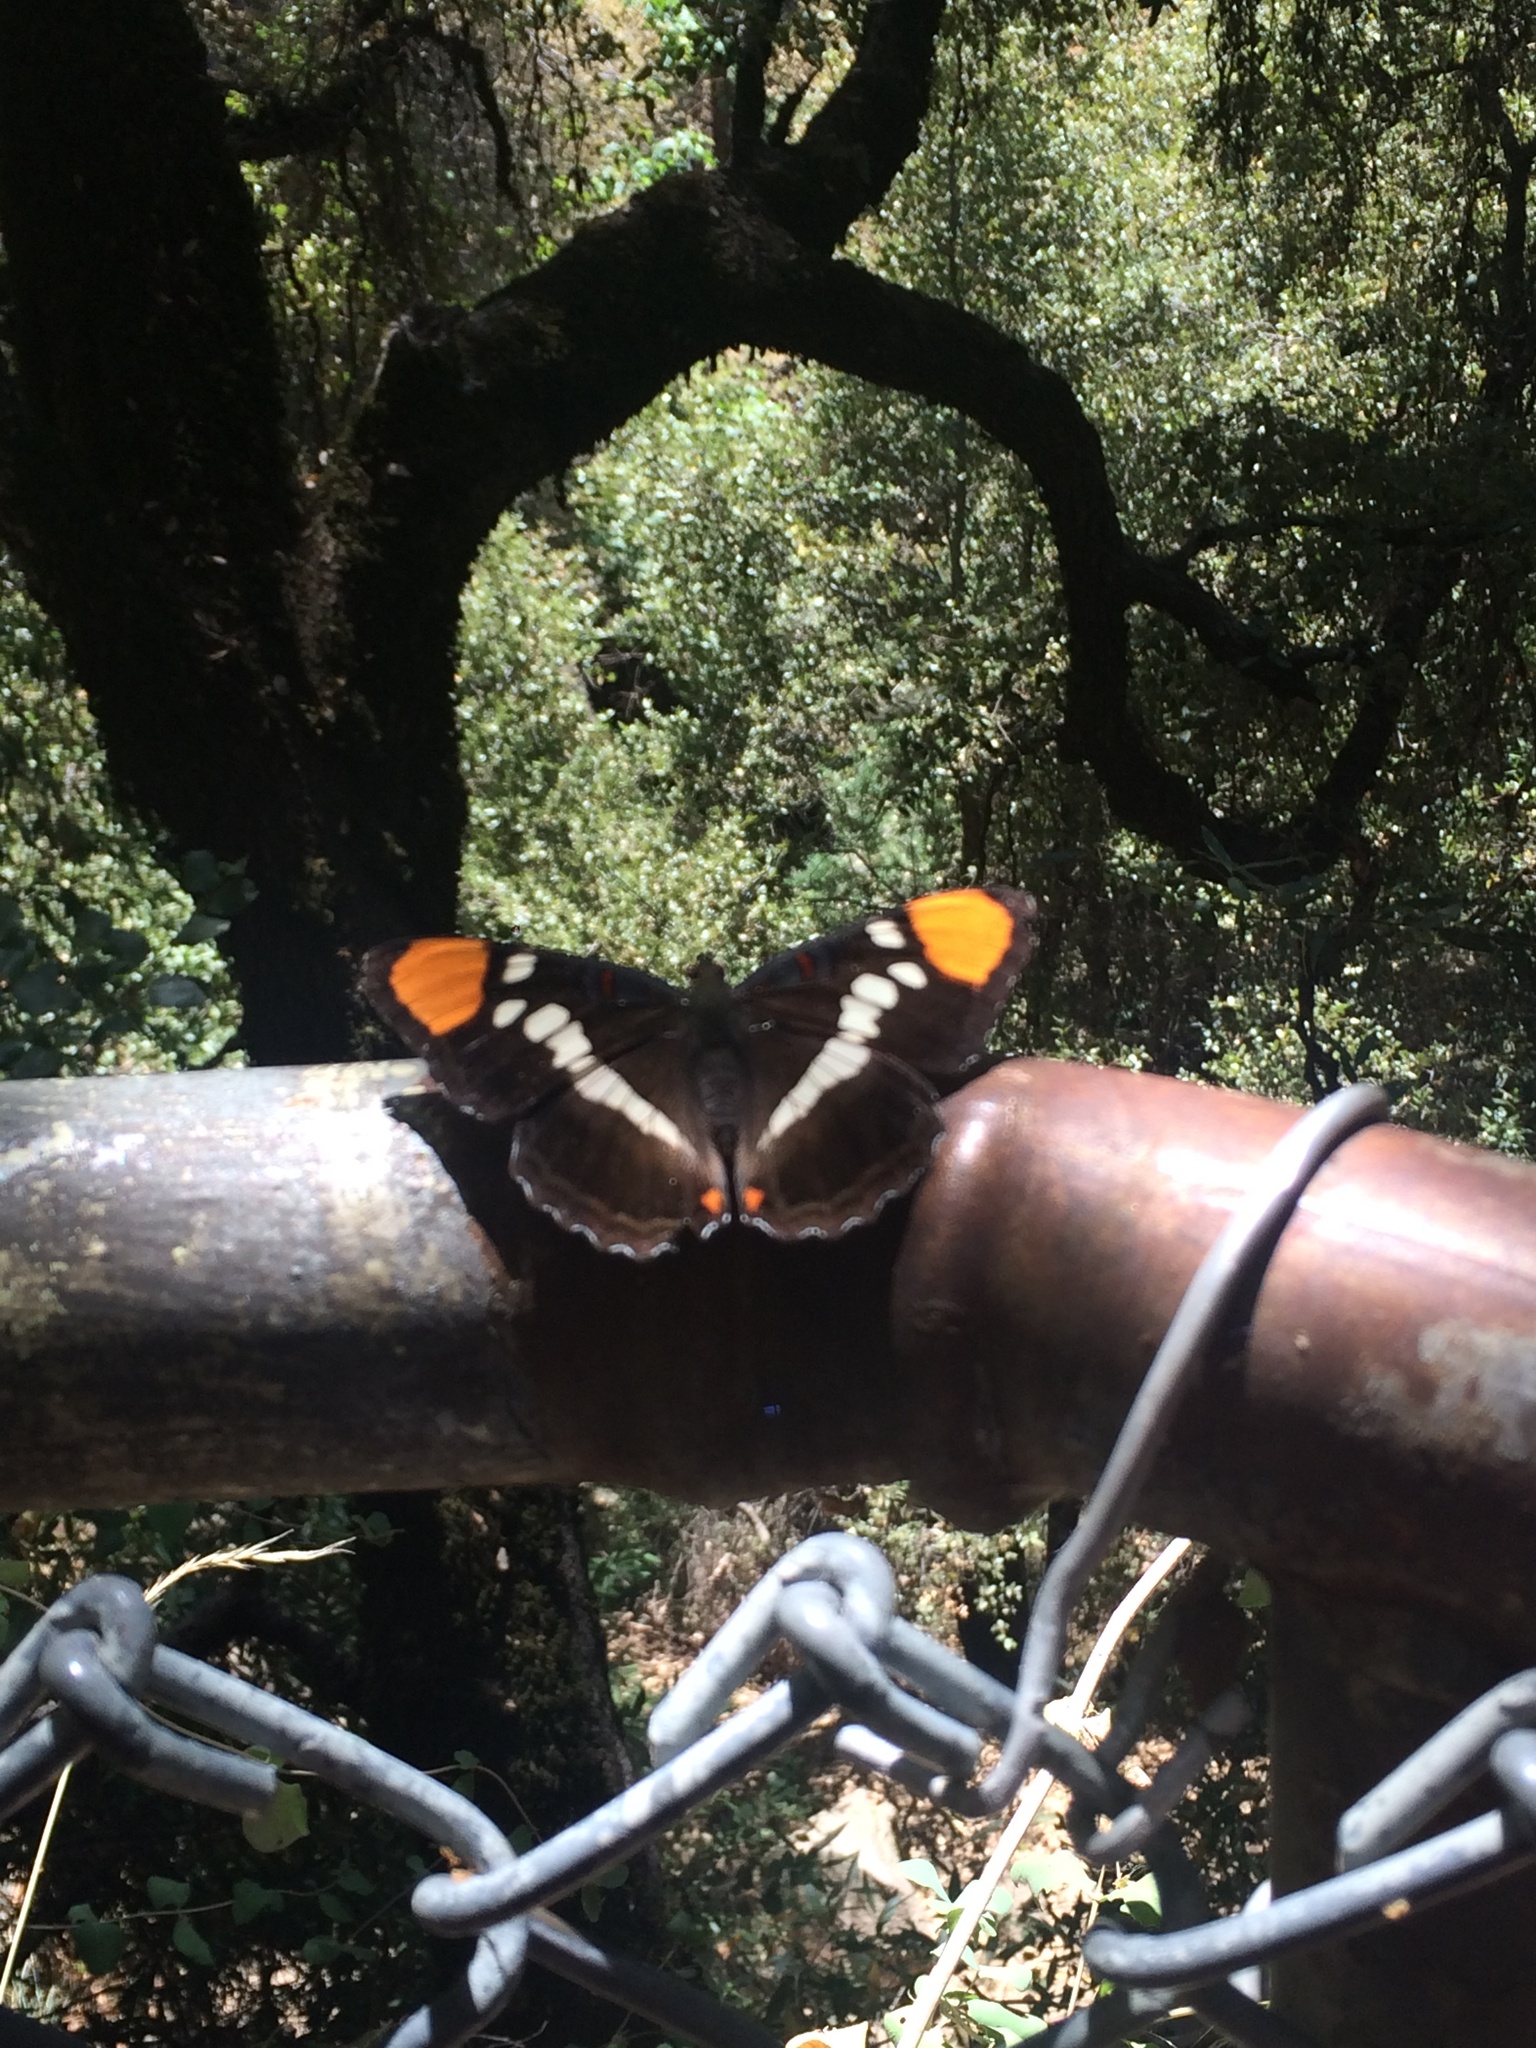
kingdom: Animalia
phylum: Arthropoda
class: Insecta
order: Lepidoptera
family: Nymphalidae
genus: Limenitis
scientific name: Limenitis bredowii
